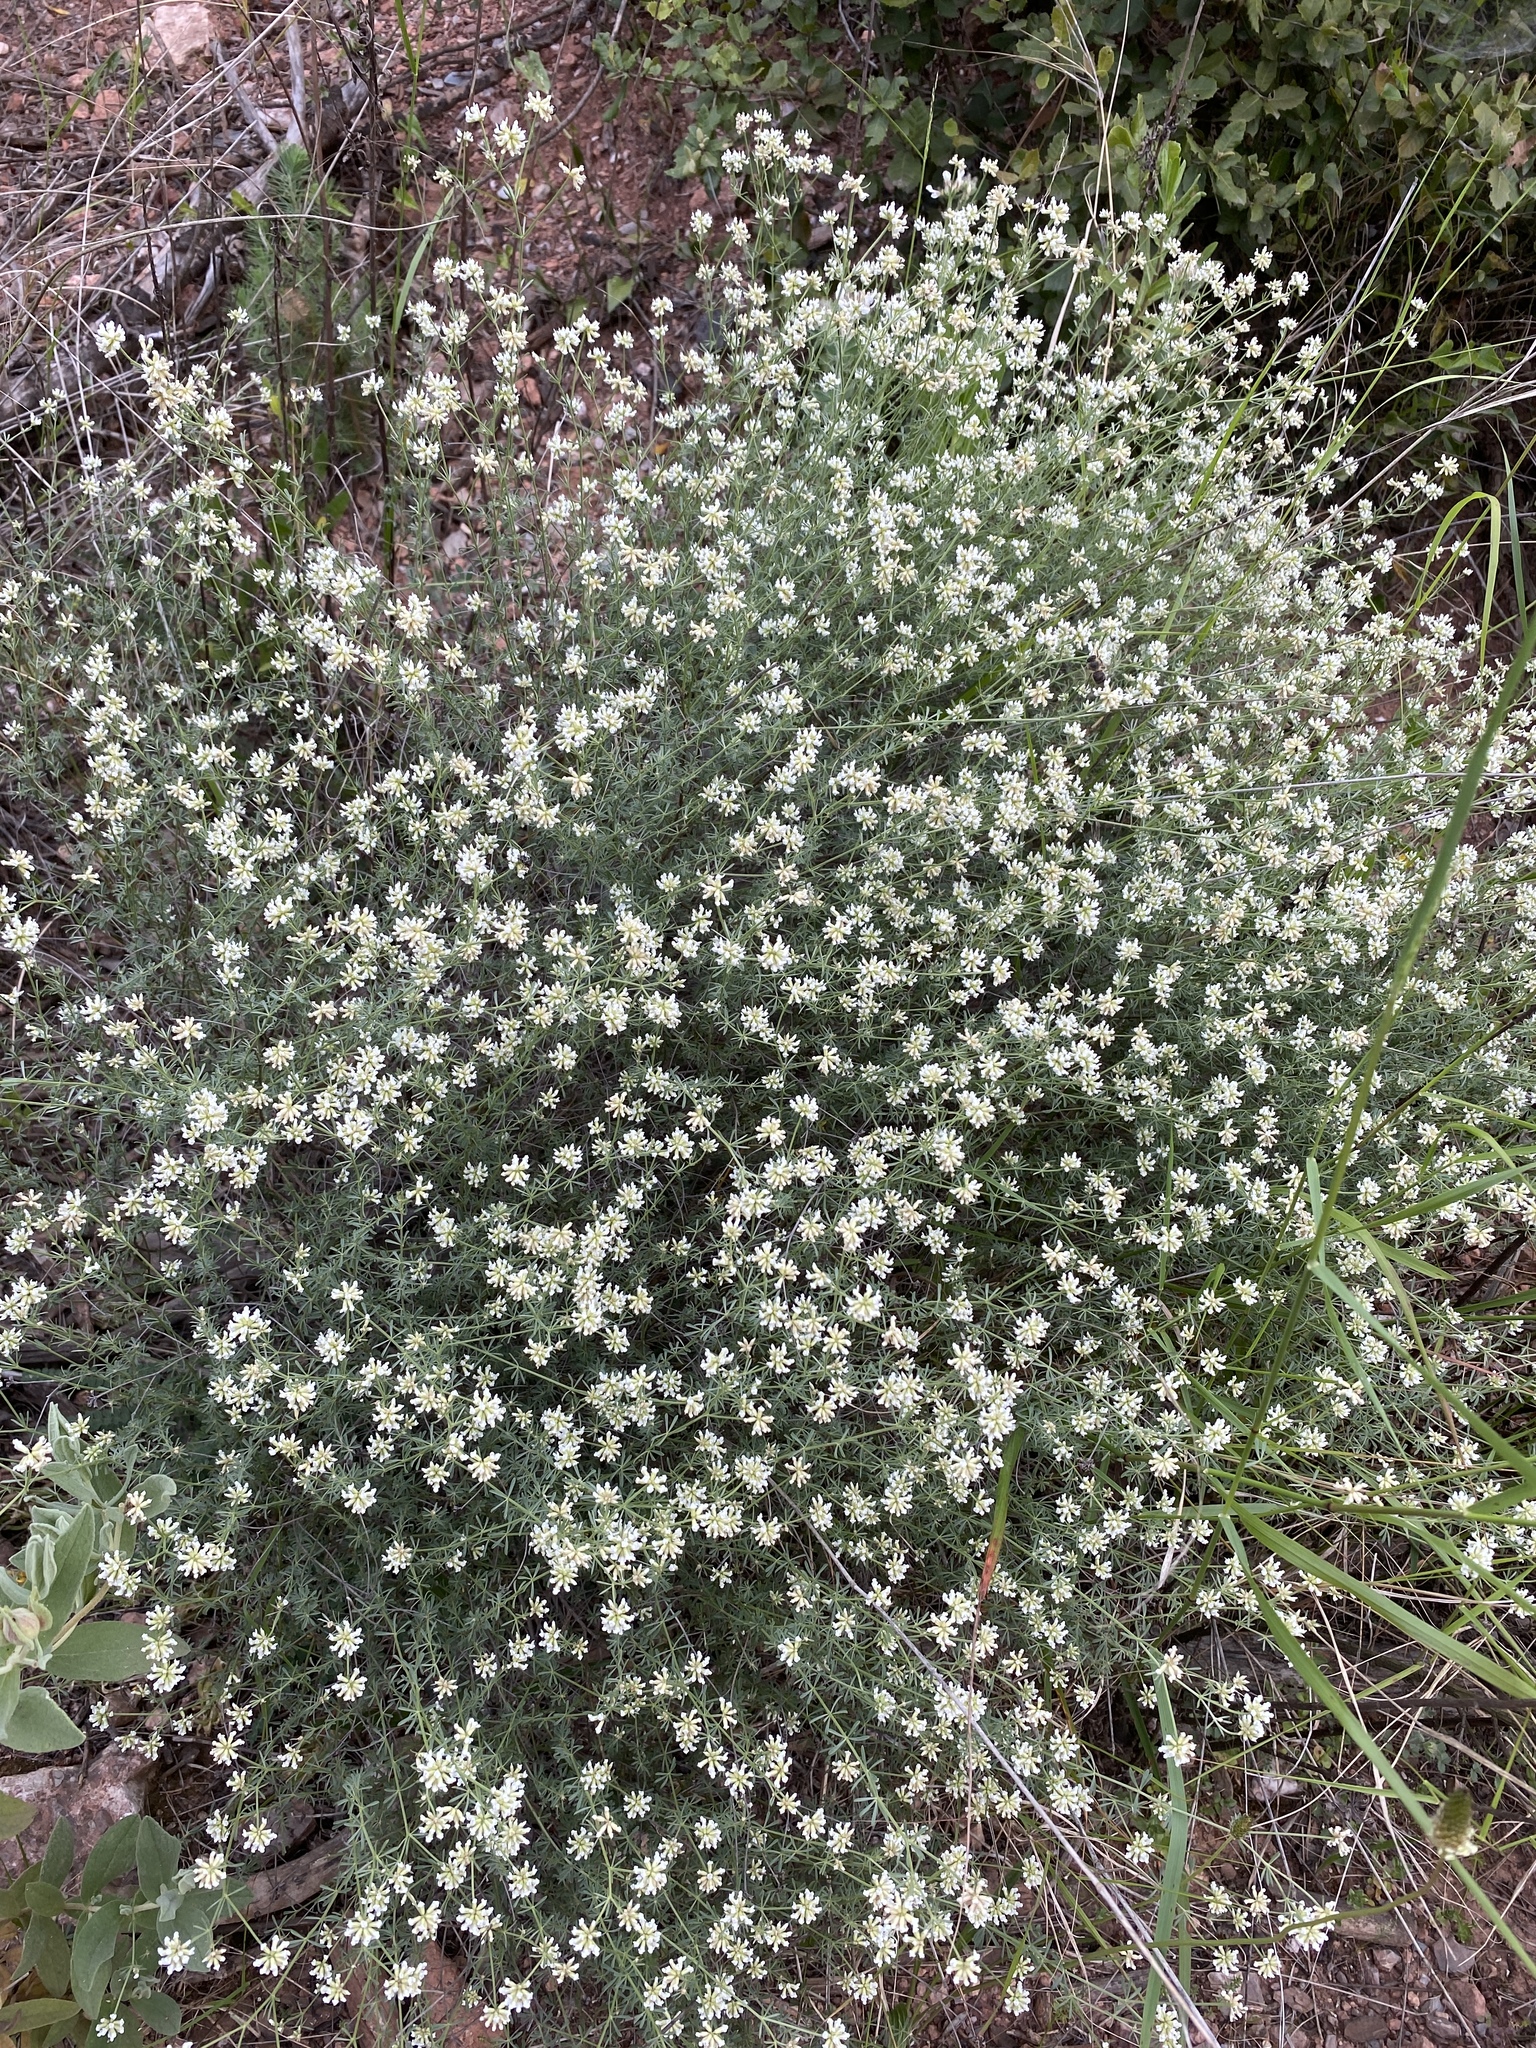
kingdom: Plantae
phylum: Tracheophyta
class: Magnoliopsida
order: Fabales
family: Fabaceae
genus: Lotus
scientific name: Lotus dorycnium
